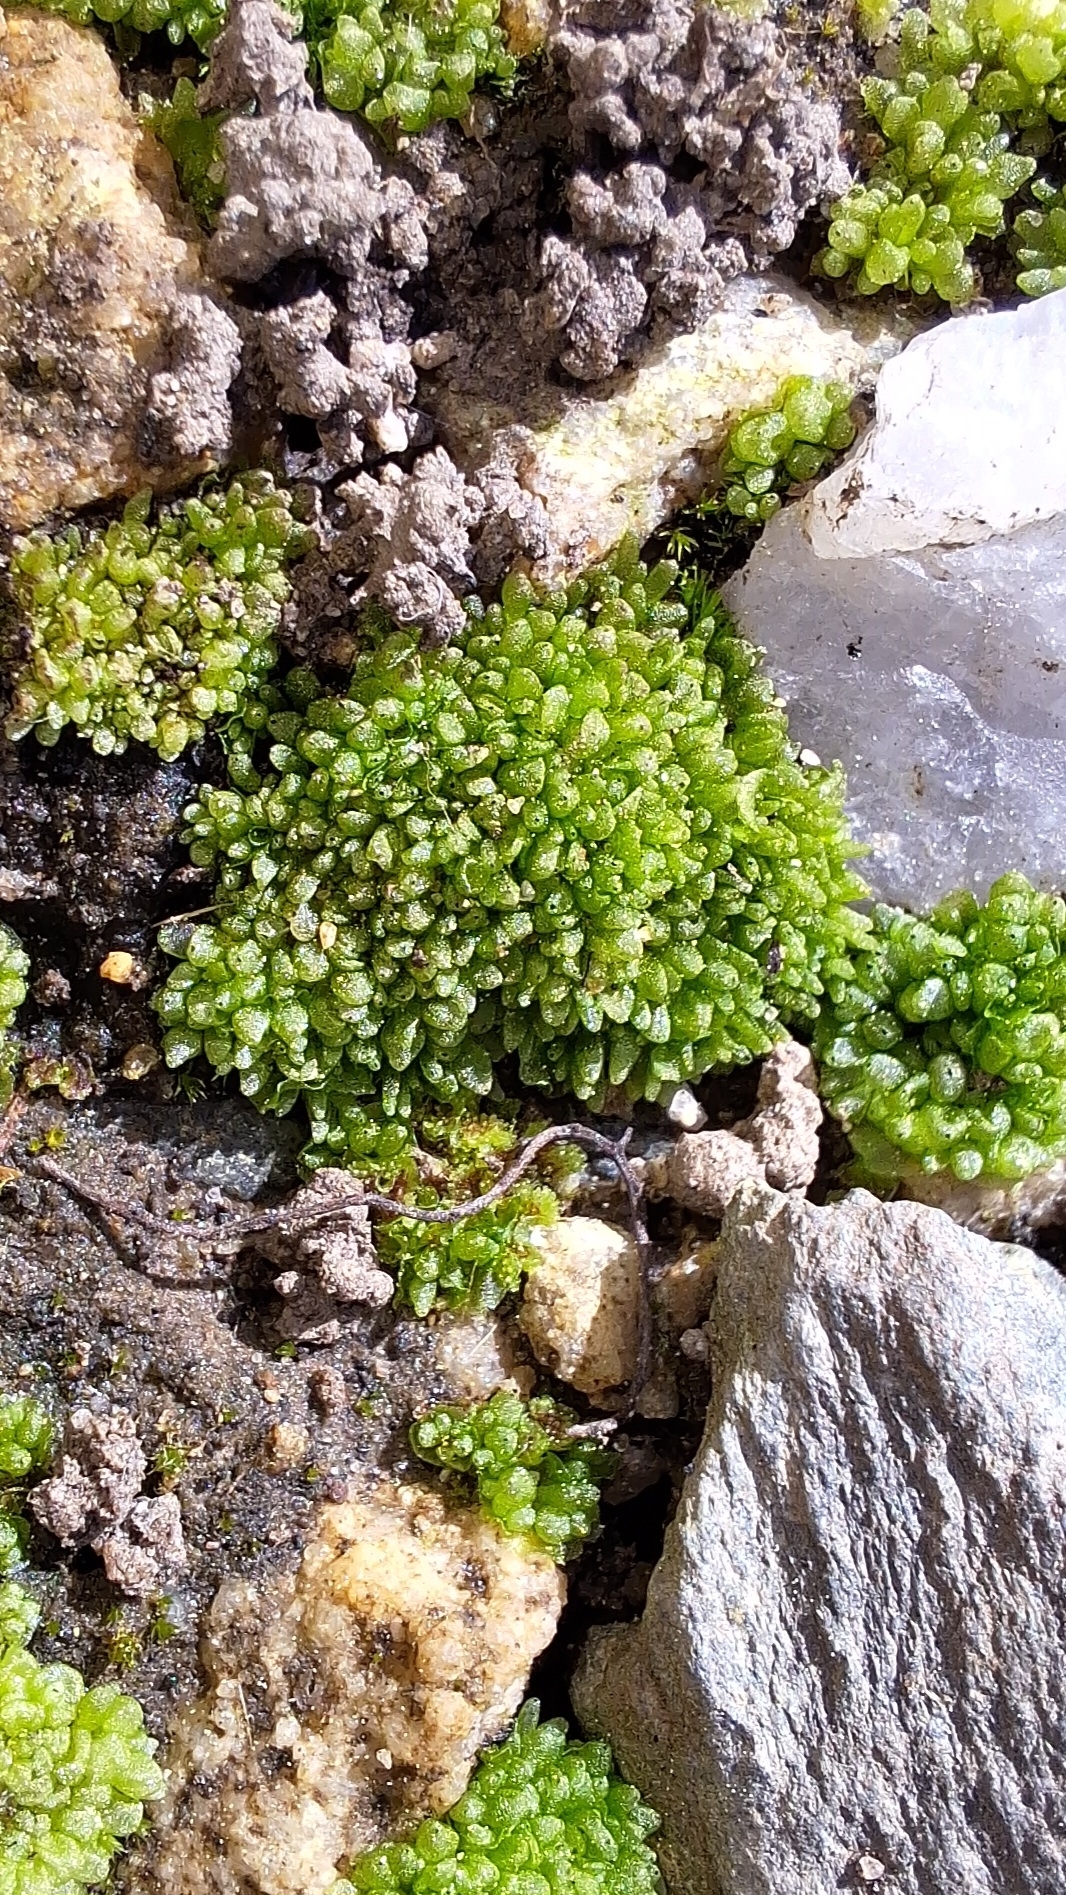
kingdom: Plantae
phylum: Marchantiophyta
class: Marchantiopsida
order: Sphaerocarpales
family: Sphaerocarpaceae
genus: Sphaerocarpos
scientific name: Sphaerocarpos texanus
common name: Texas balloonwort
